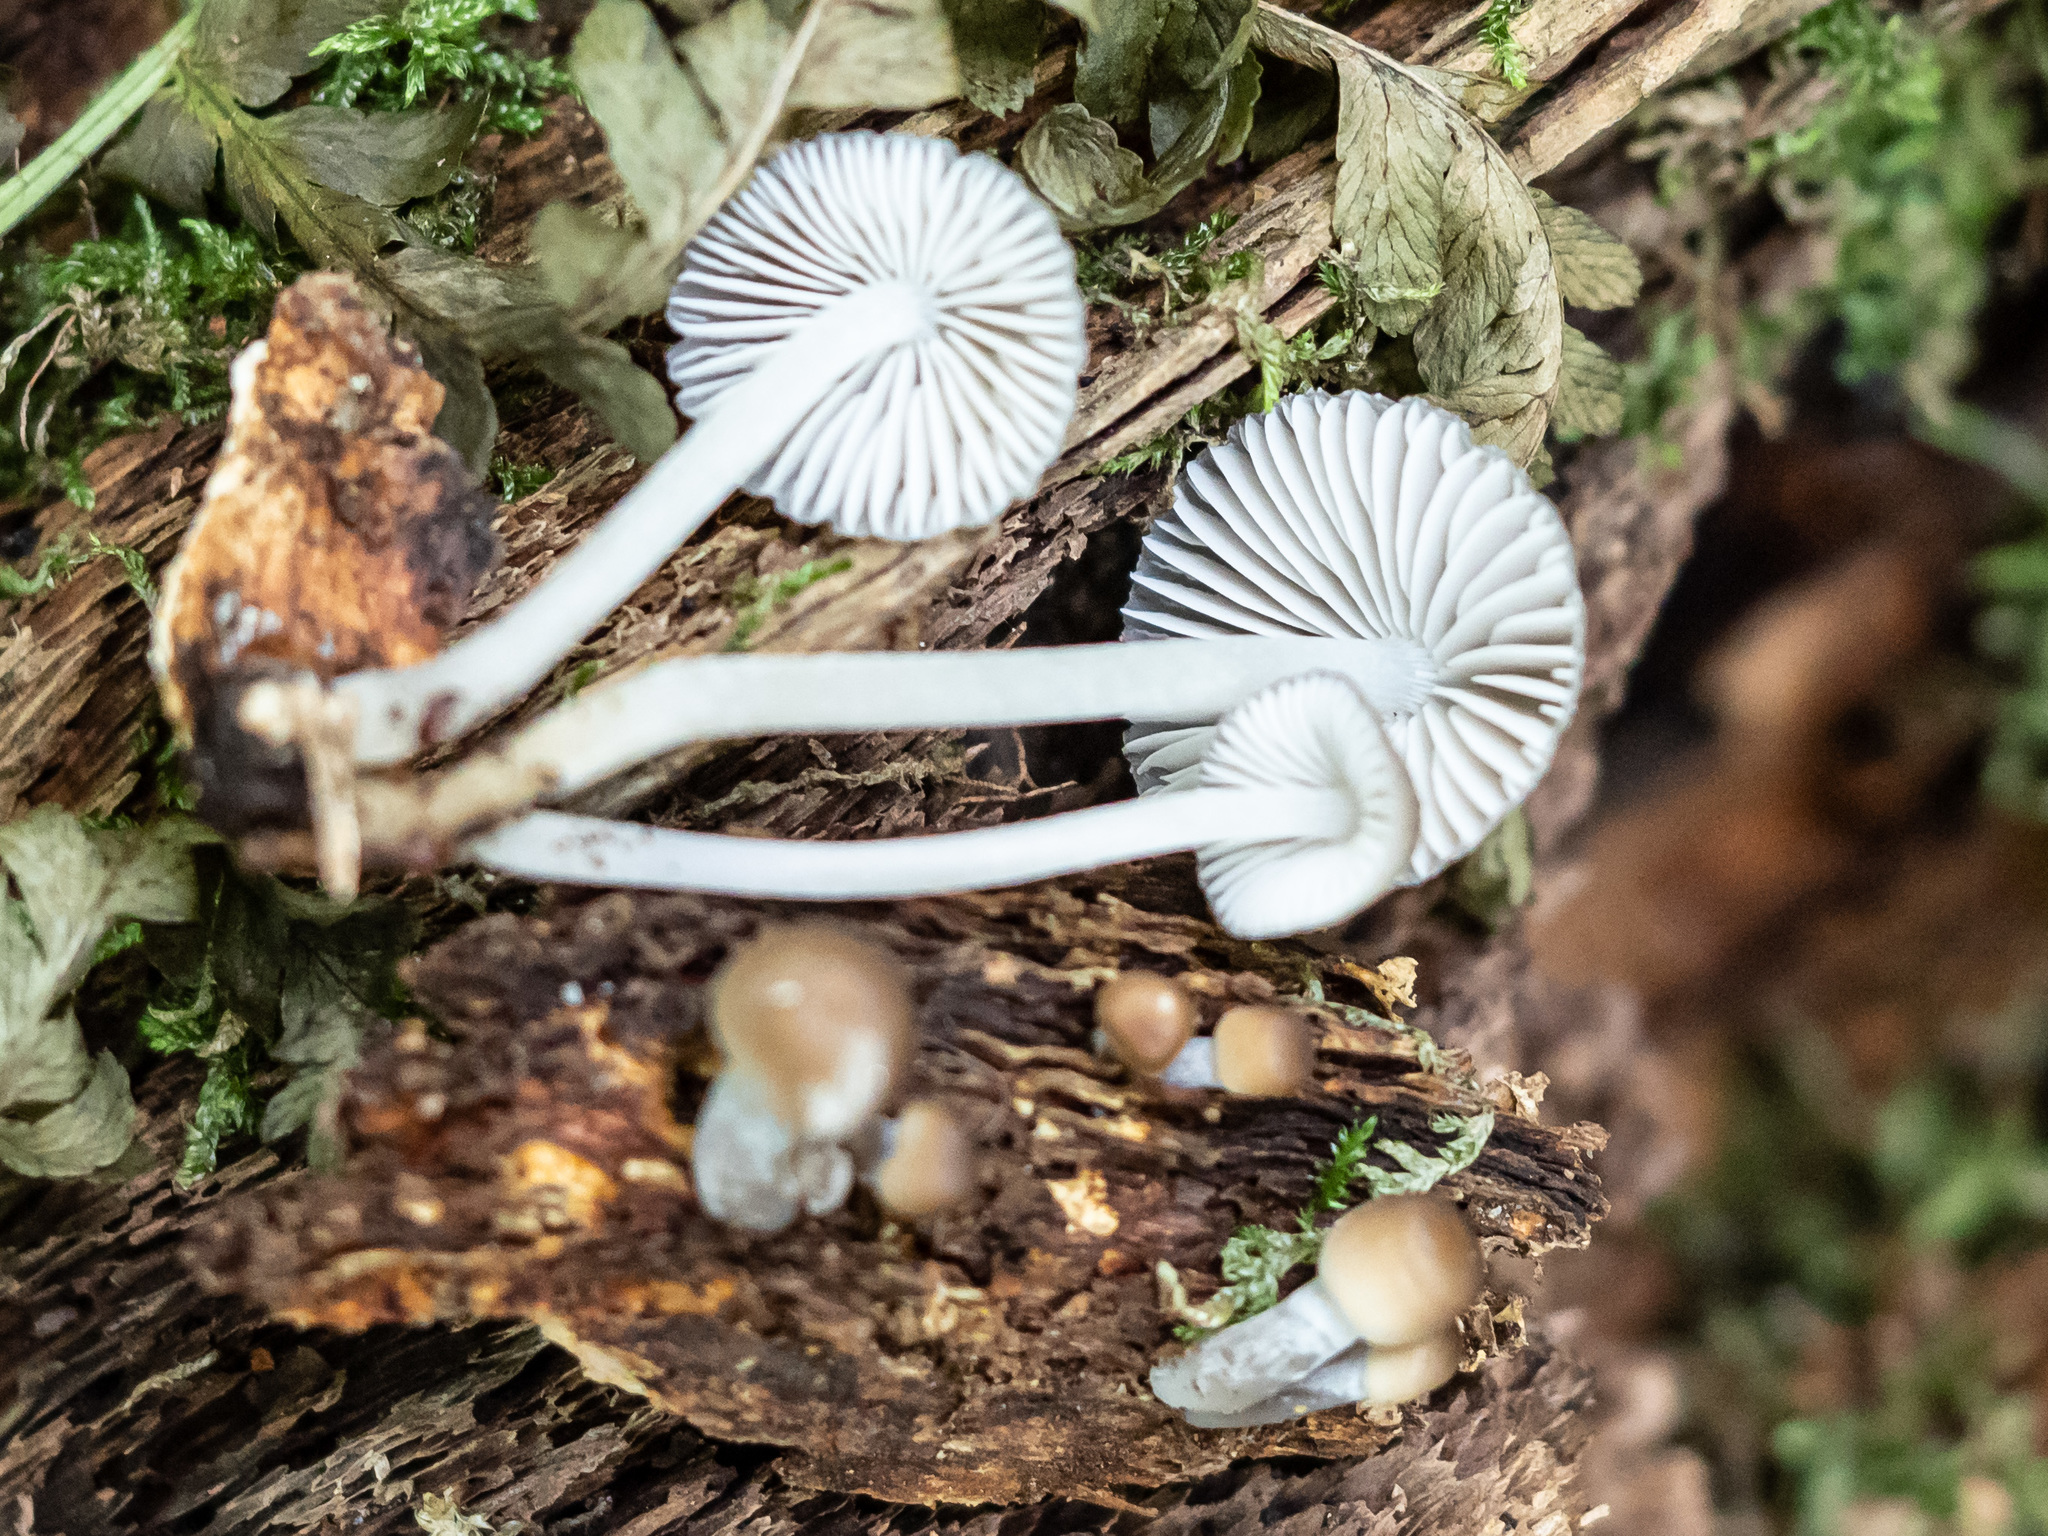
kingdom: Fungi
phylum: Basidiomycota
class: Agaricomycetes
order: Agaricales
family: Mycenaceae
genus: Mycena
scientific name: Mycena polygramma
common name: Grooved bonnet
